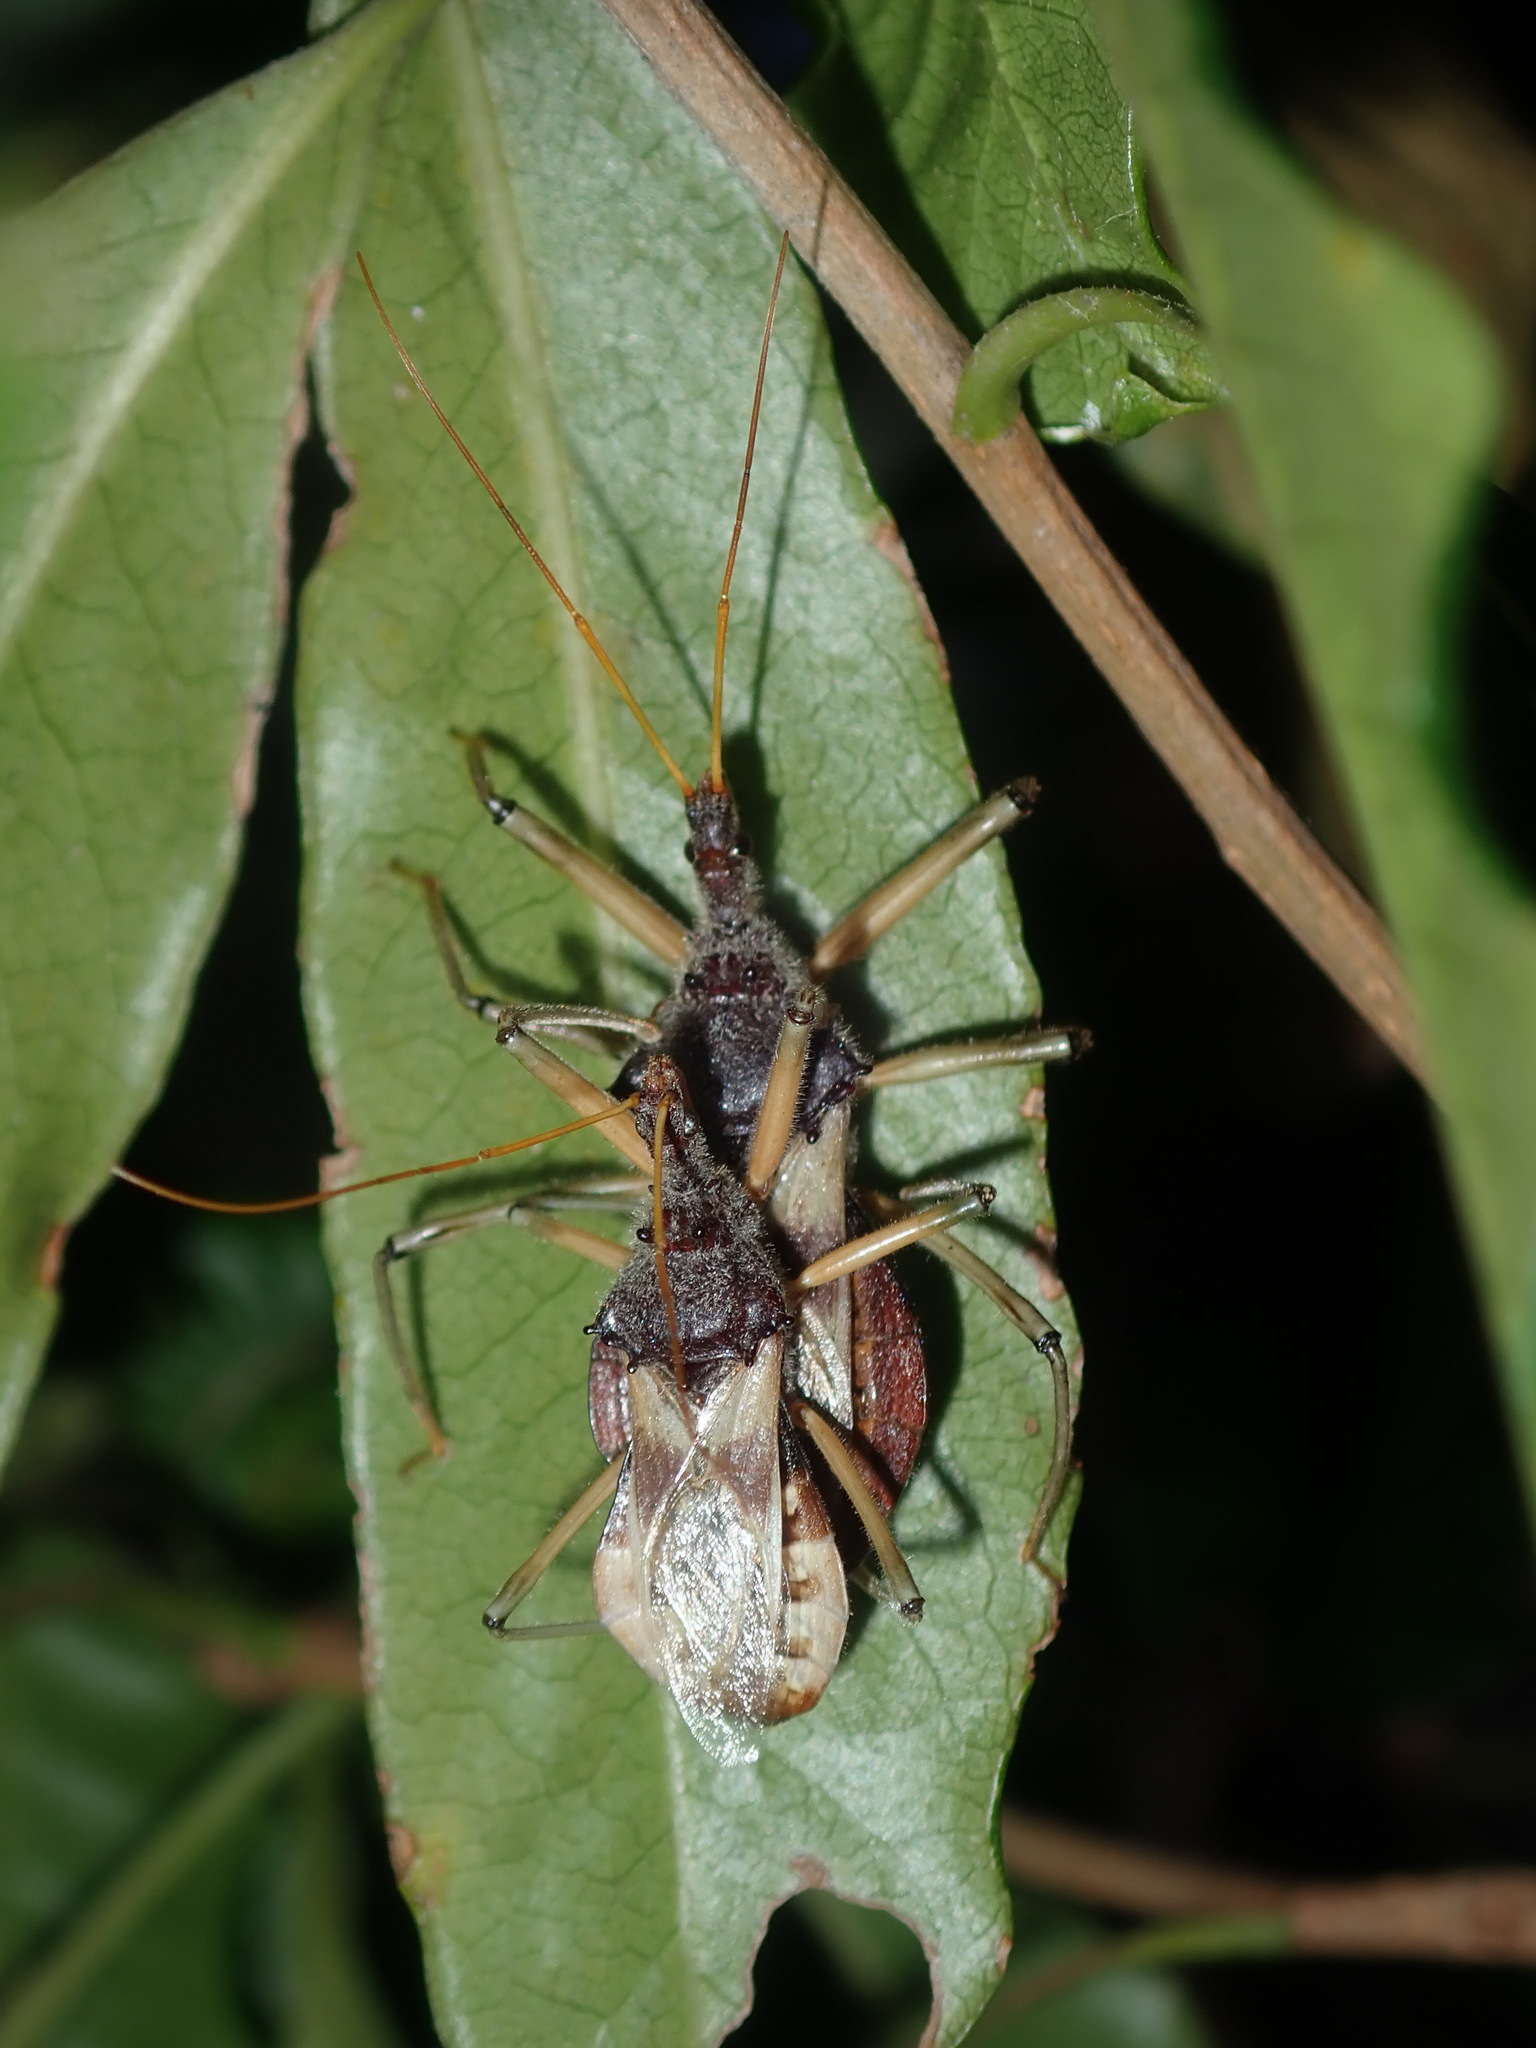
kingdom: Animalia
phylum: Arthropoda
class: Insecta
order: Hemiptera
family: Reduviidae
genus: Pristhesancus
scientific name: Pristhesancus plagipennis
